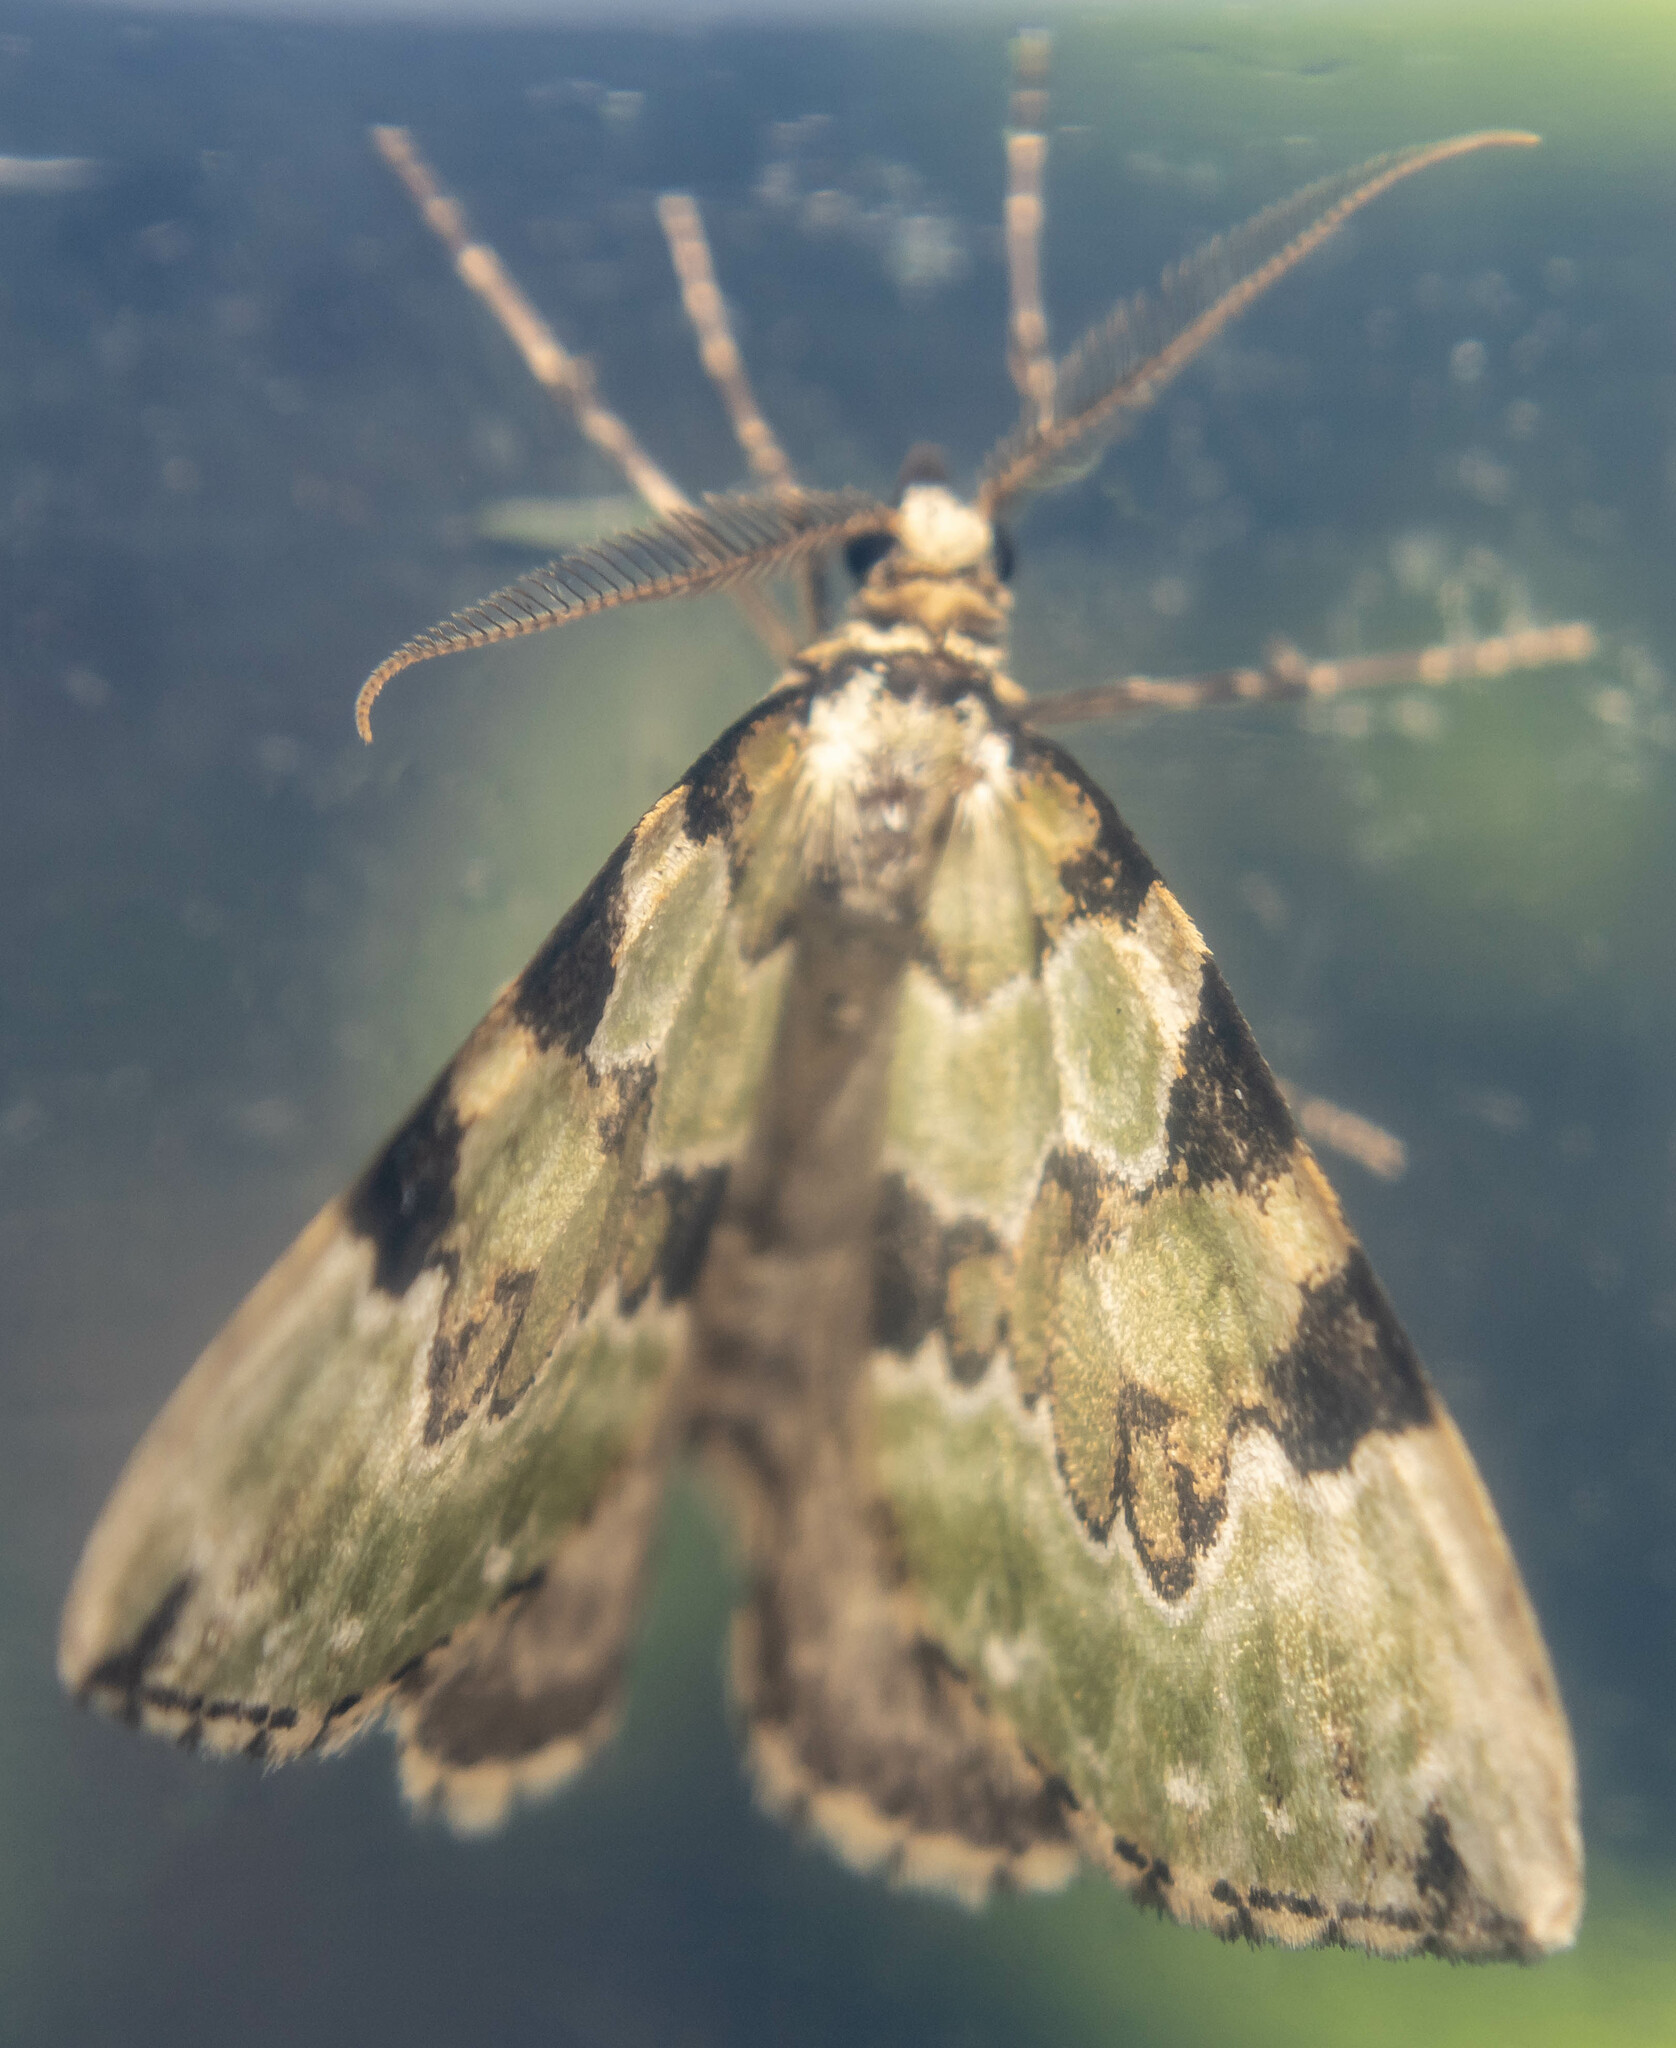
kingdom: Animalia
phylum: Arthropoda
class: Insecta
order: Lepidoptera
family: Geometridae
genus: Colostygia
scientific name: Colostygia pectinataria
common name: Green carpet
